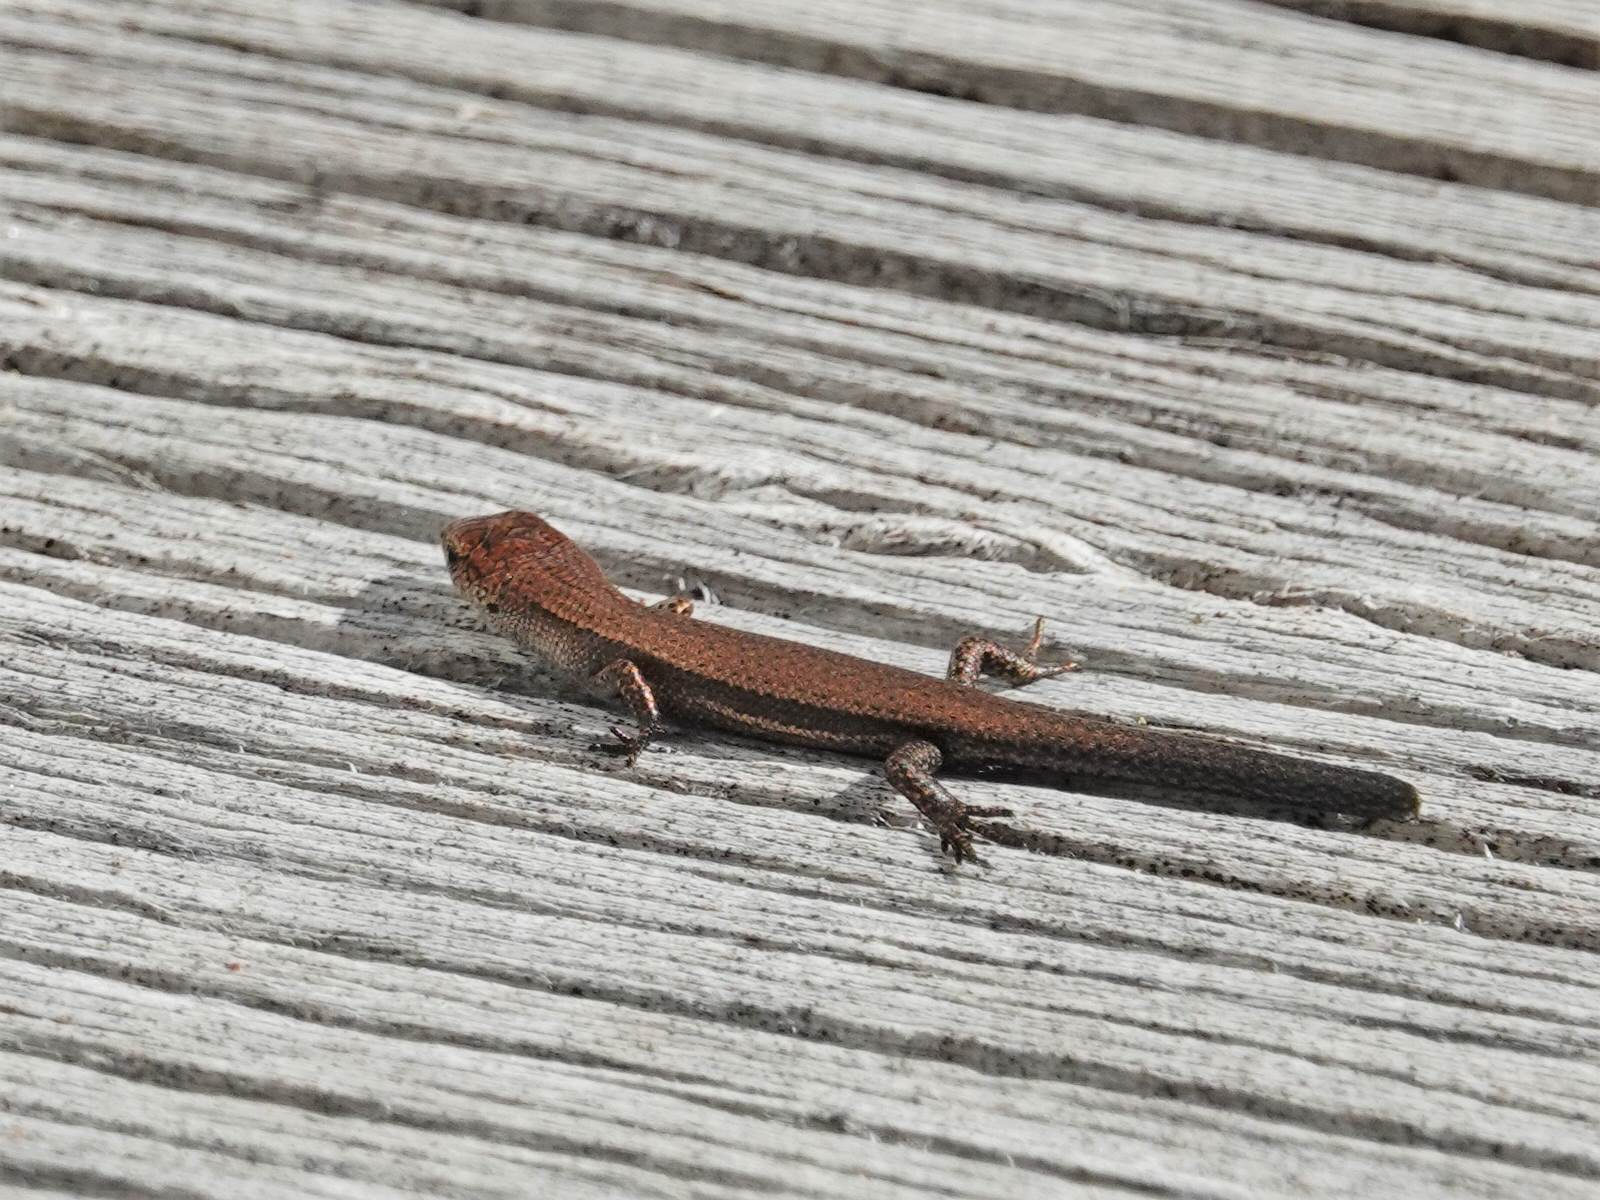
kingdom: Animalia
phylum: Chordata
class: Squamata
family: Scincidae
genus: Lampropholis
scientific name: Lampropholis delicata
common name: Plague skink
